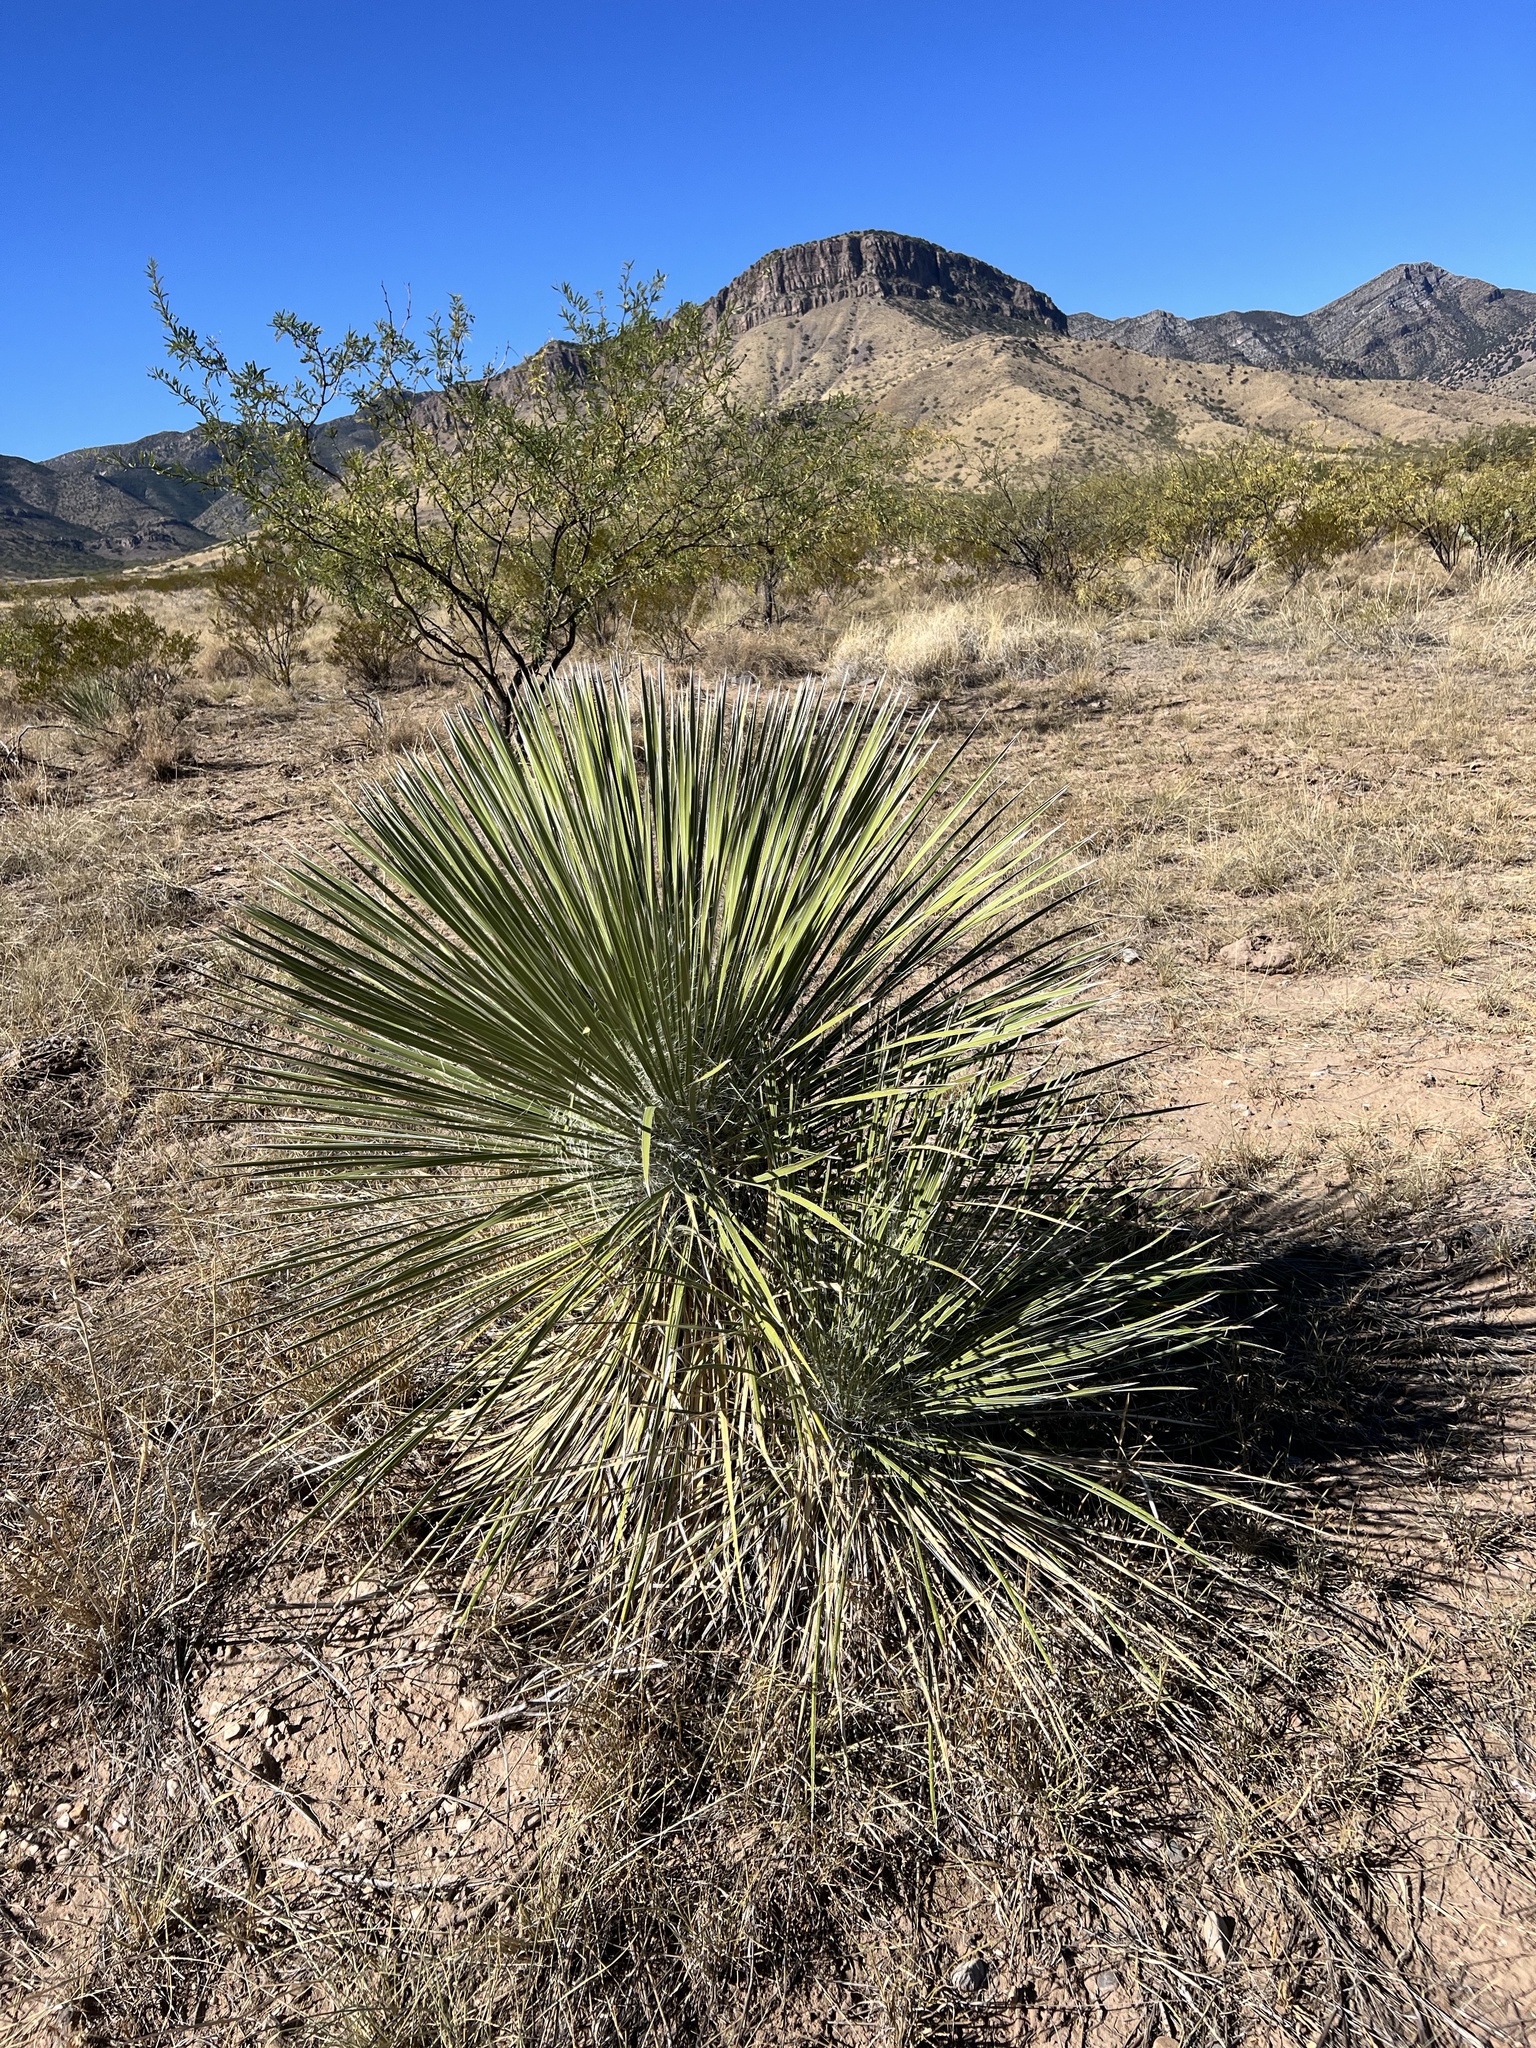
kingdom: Plantae
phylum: Tracheophyta
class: Liliopsida
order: Asparagales
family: Asparagaceae
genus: Yucca
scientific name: Yucca elata
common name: Palmella
